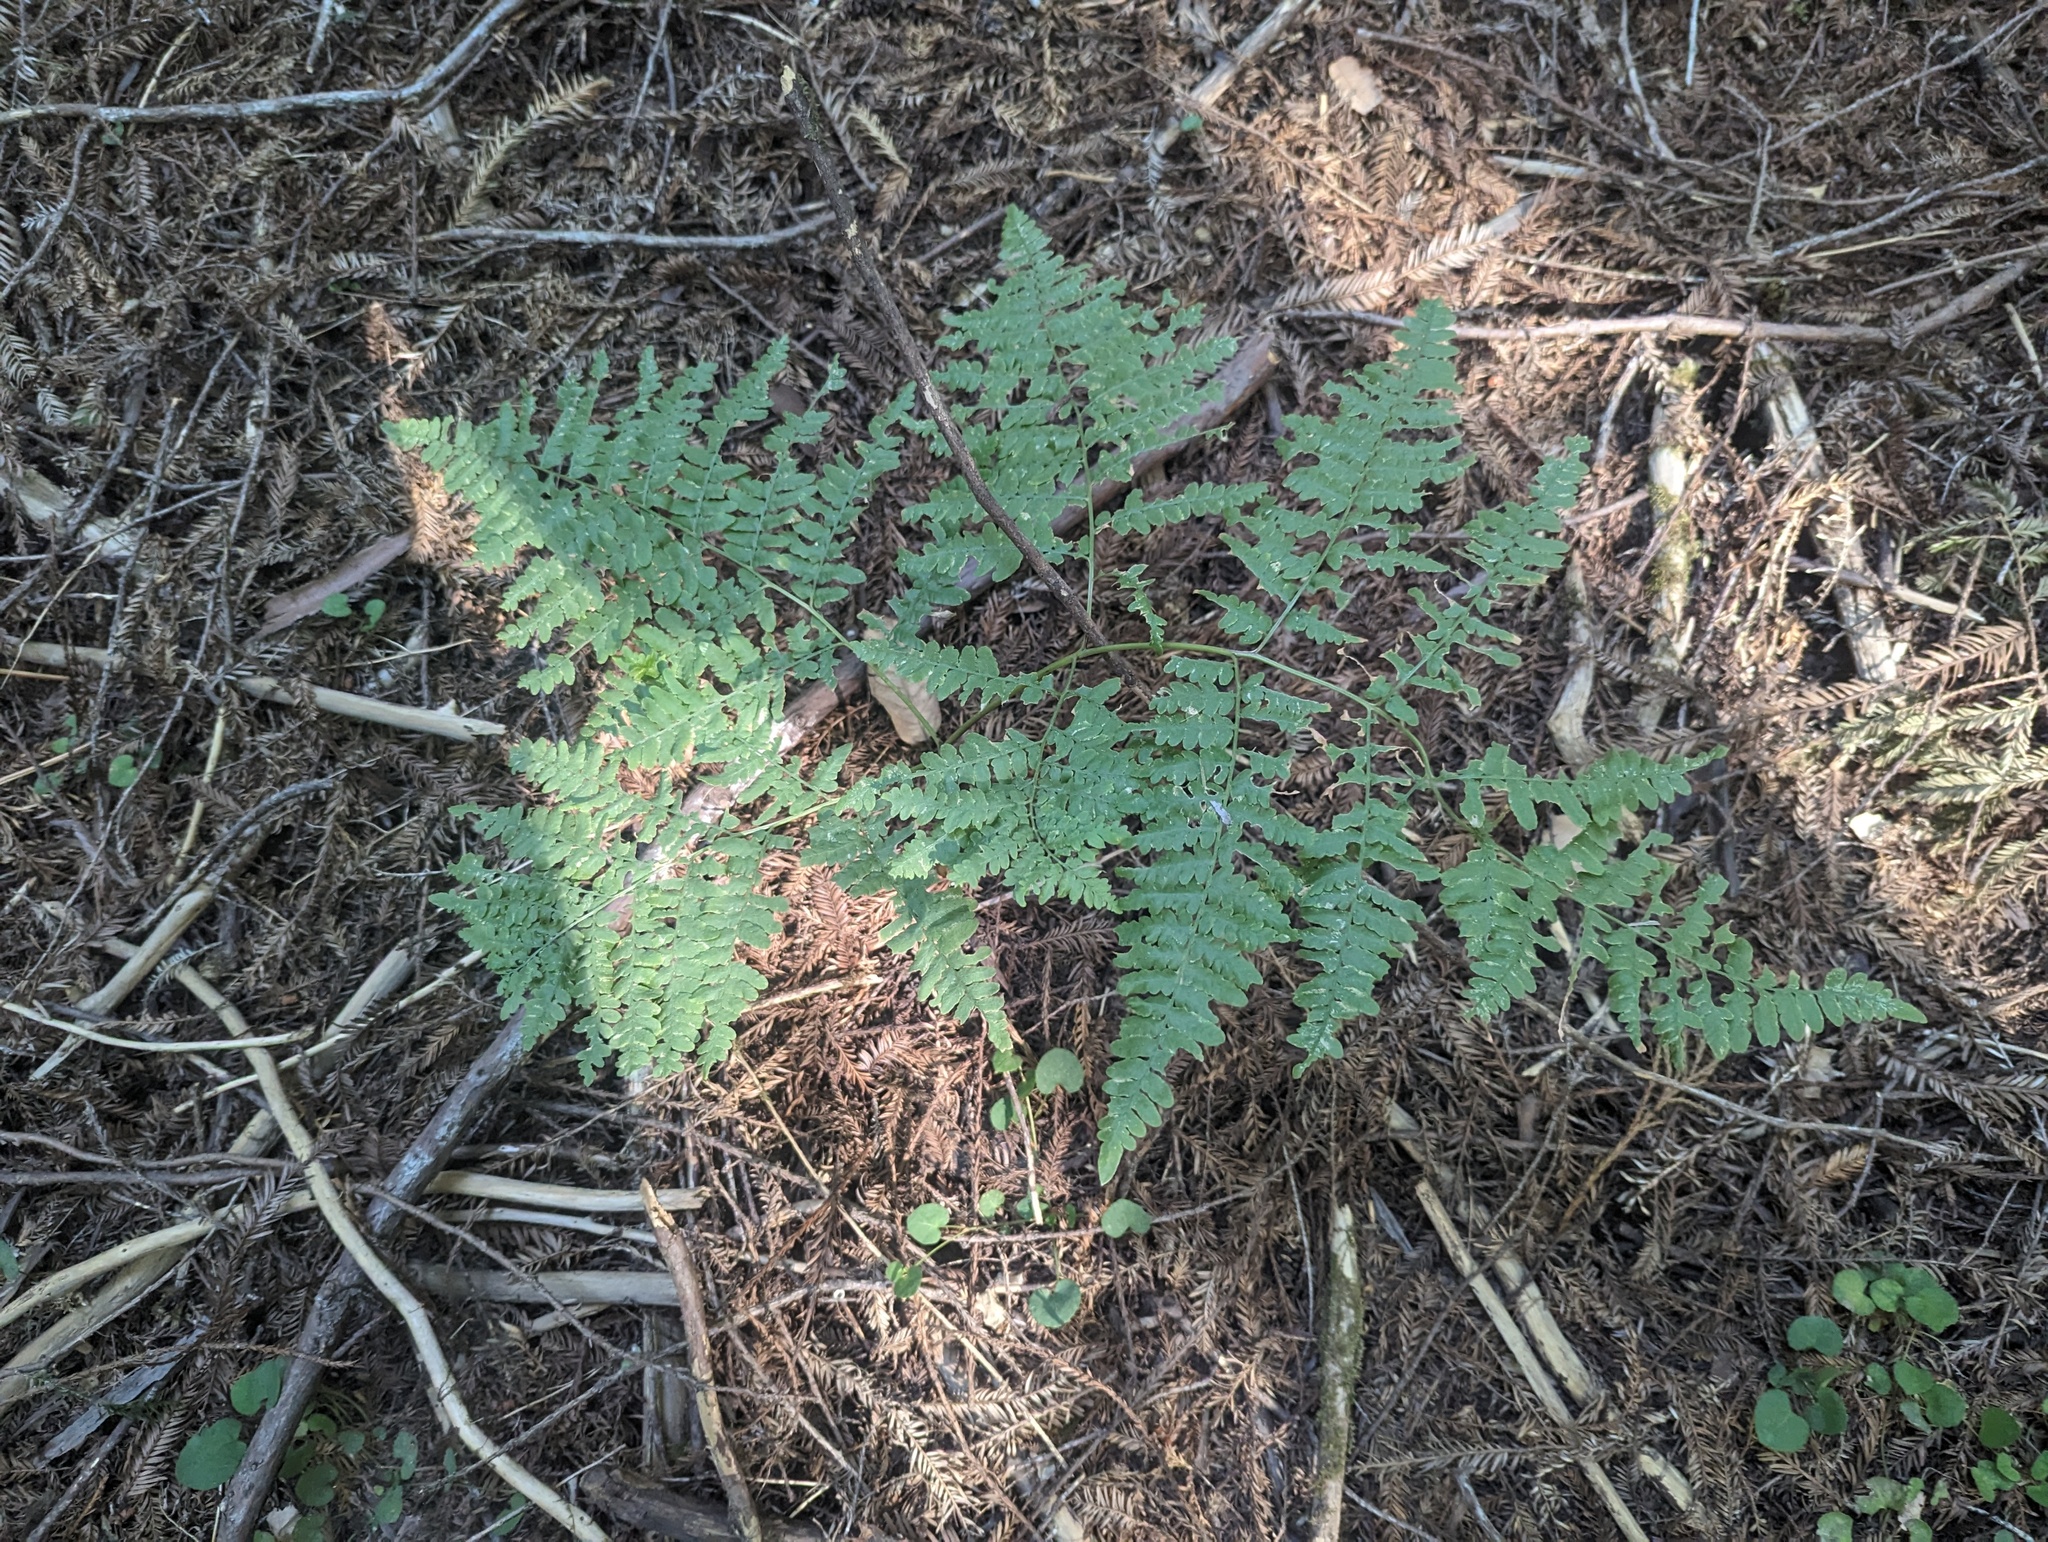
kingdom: Plantae
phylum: Tracheophyta
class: Polypodiopsida
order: Polypodiales
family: Dennstaedtiaceae
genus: Pteridium
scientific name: Pteridium aquilinum
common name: Bracken
